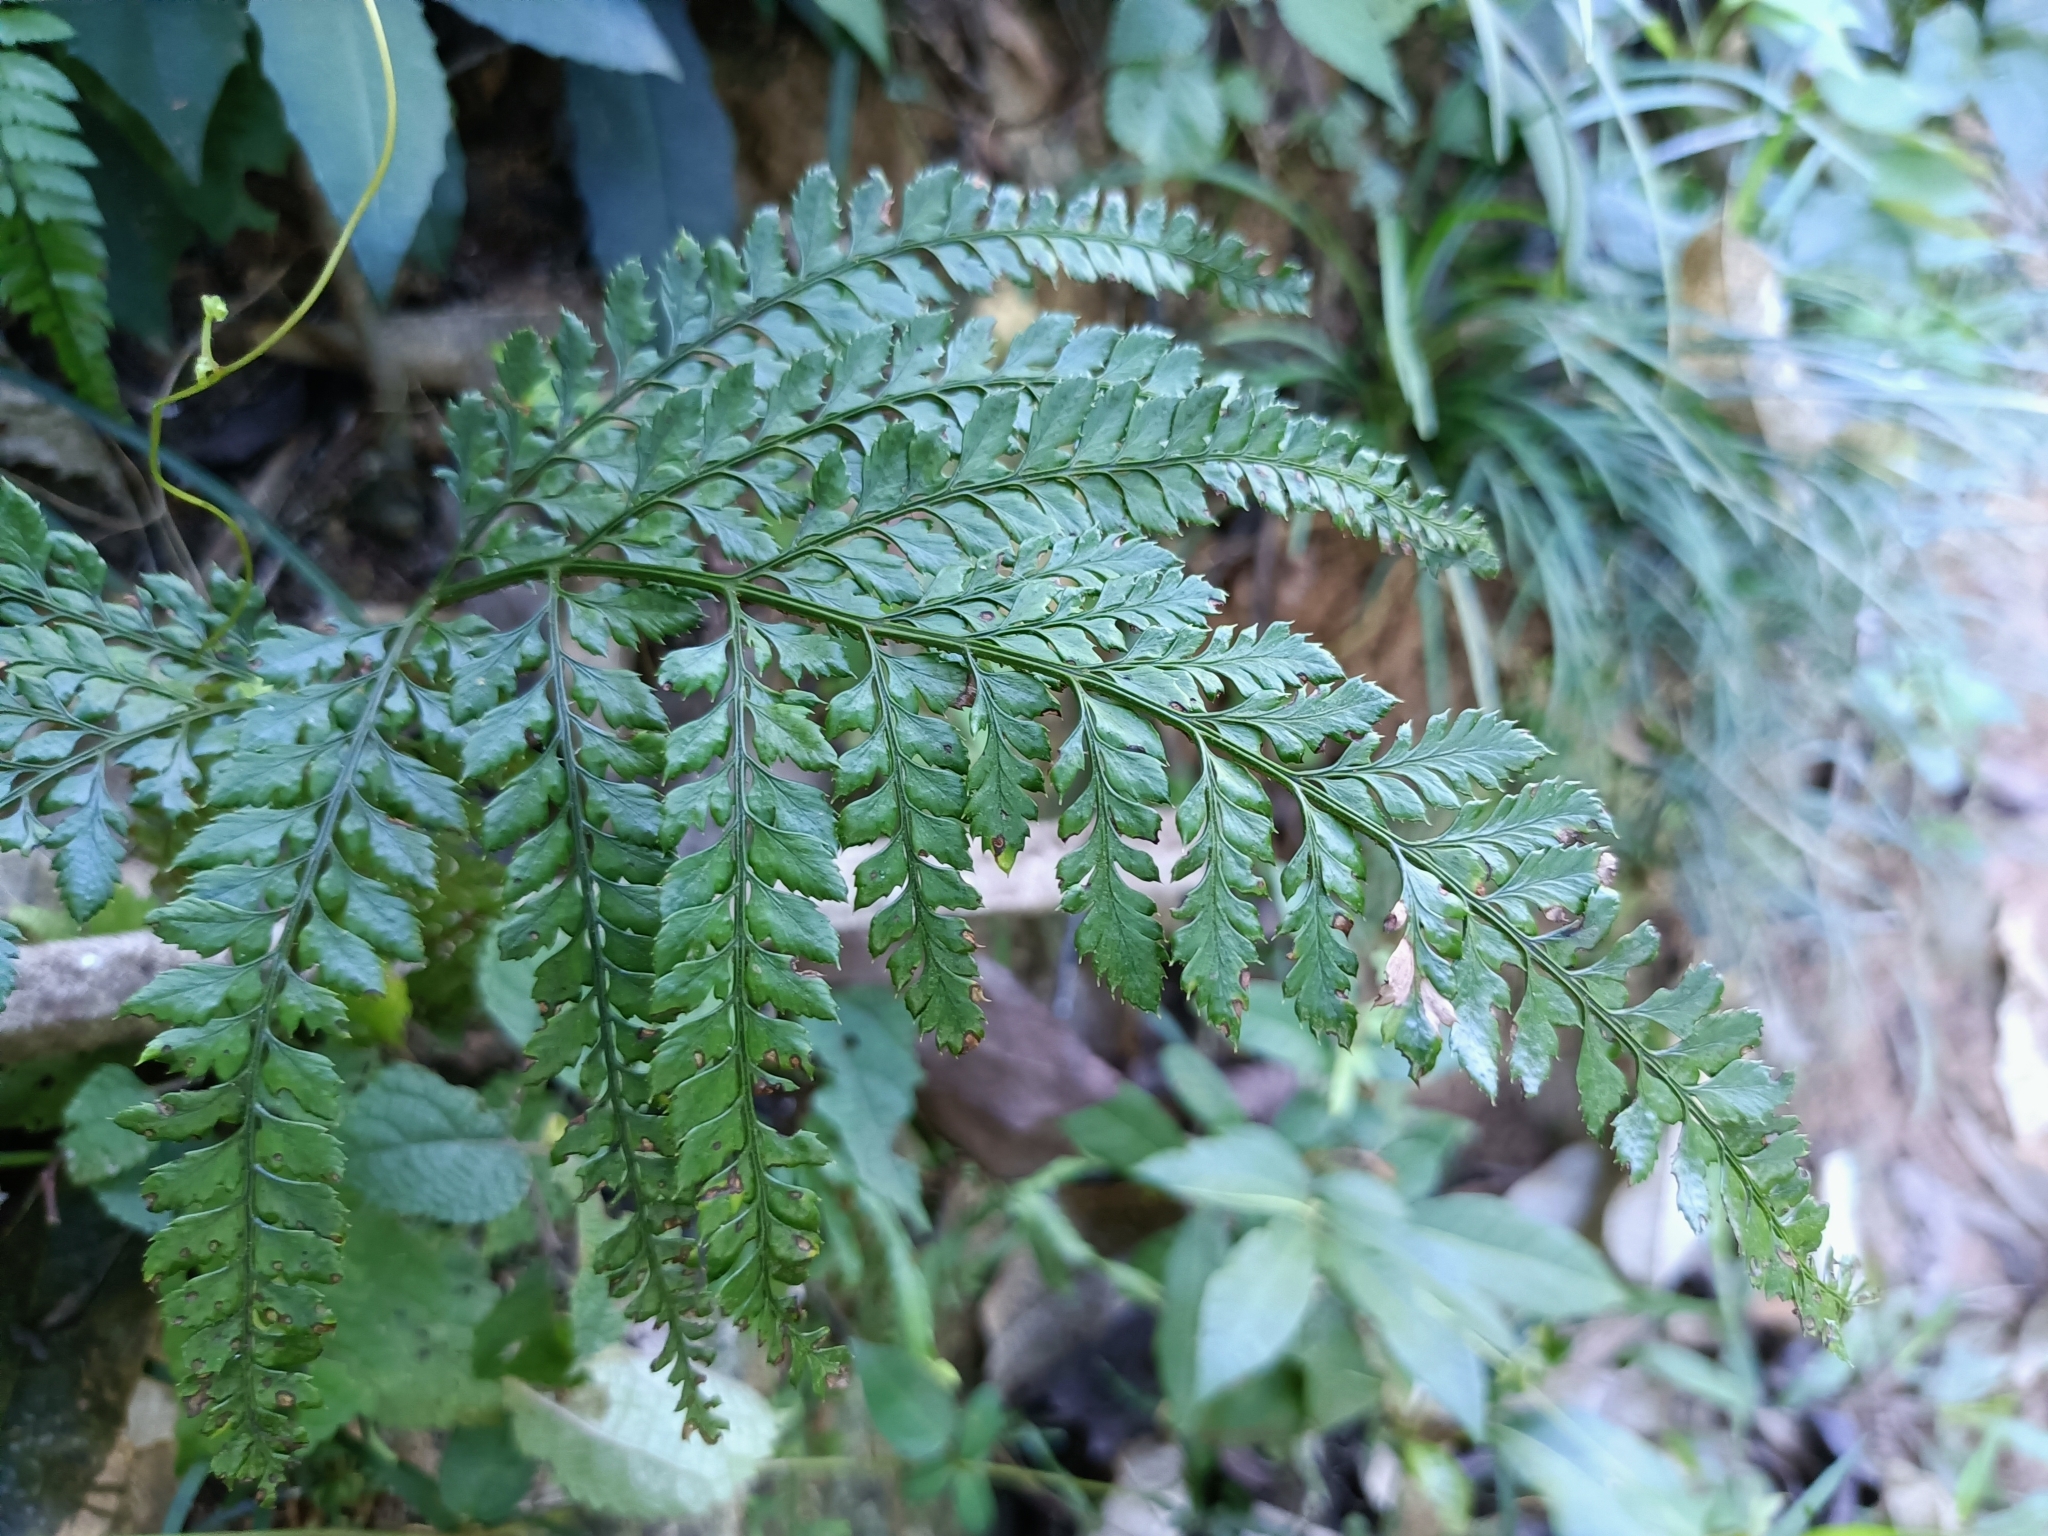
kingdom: Plantae
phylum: Tracheophyta
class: Polypodiopsida
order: Polypodiales
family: Dryopteridaceae
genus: Arachniodes
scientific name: Arachniodes aristata
